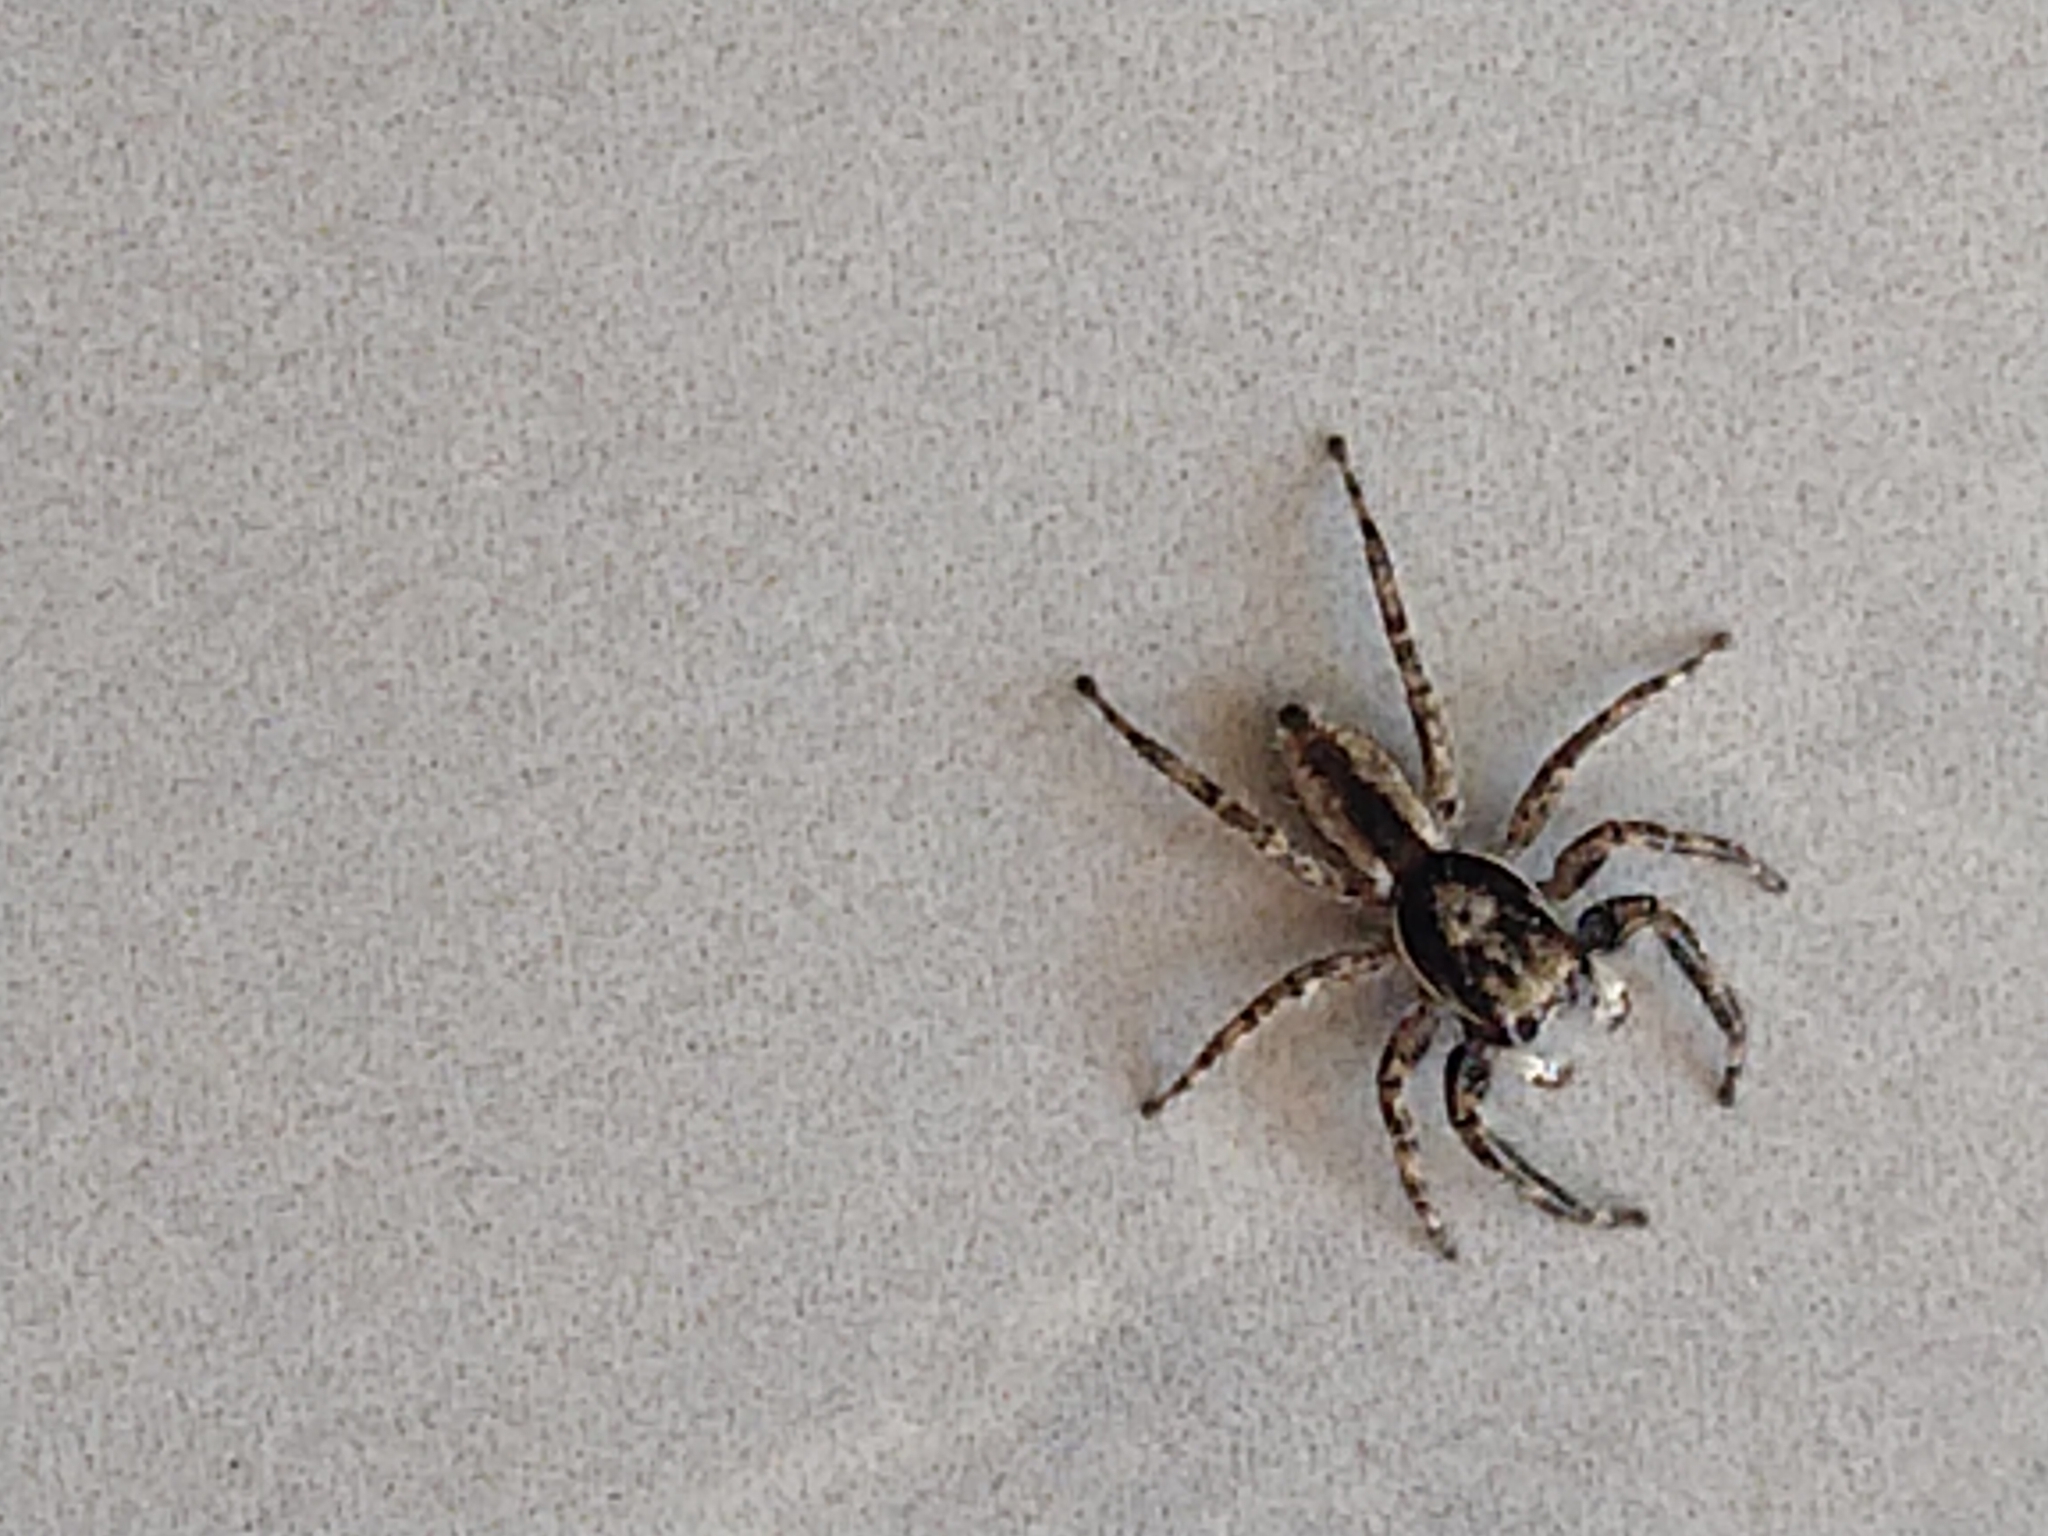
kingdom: Animalia
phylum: Arthropoda
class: Arachnida
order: Araneae
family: Salticidae
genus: Menemerus
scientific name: Menemerus bivittatus
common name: Gray wall jumper
